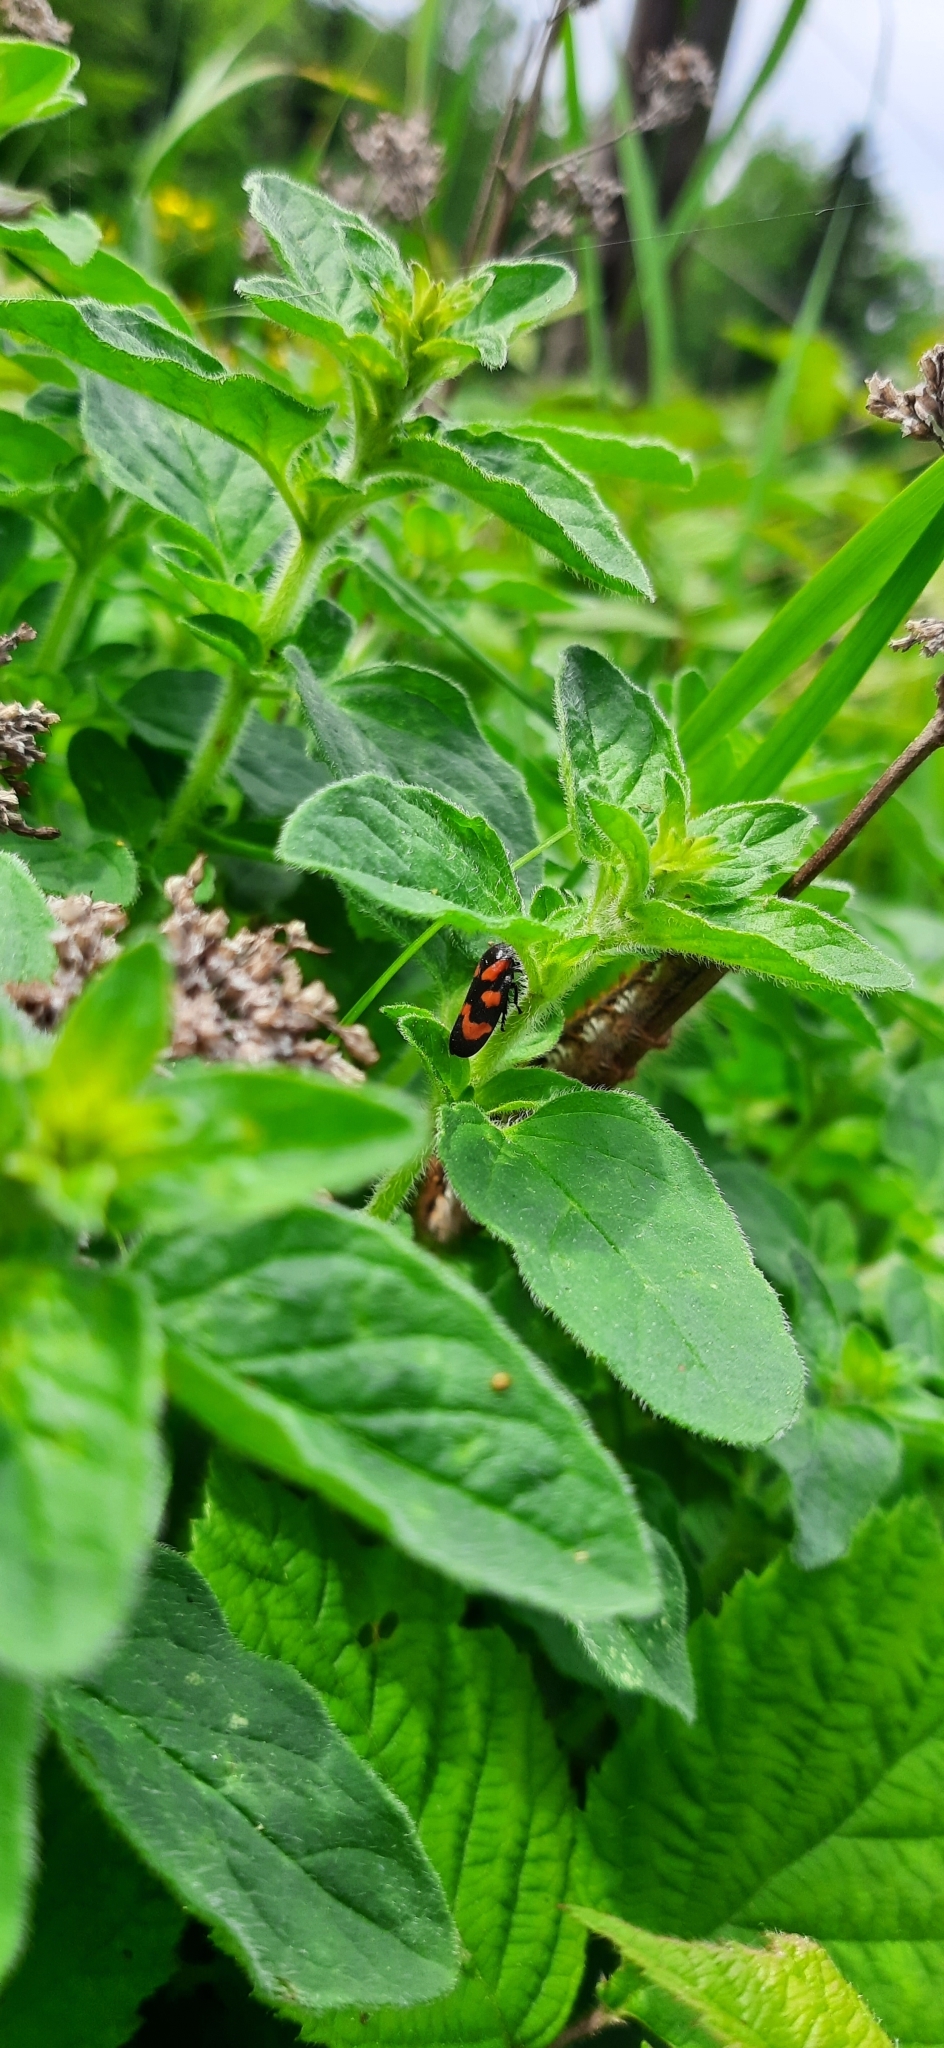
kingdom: Animalia
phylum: Arthropoda
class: Insecta
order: Hemiptera
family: Cercopidae
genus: Cercopis
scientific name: Cercopis vulnerata
